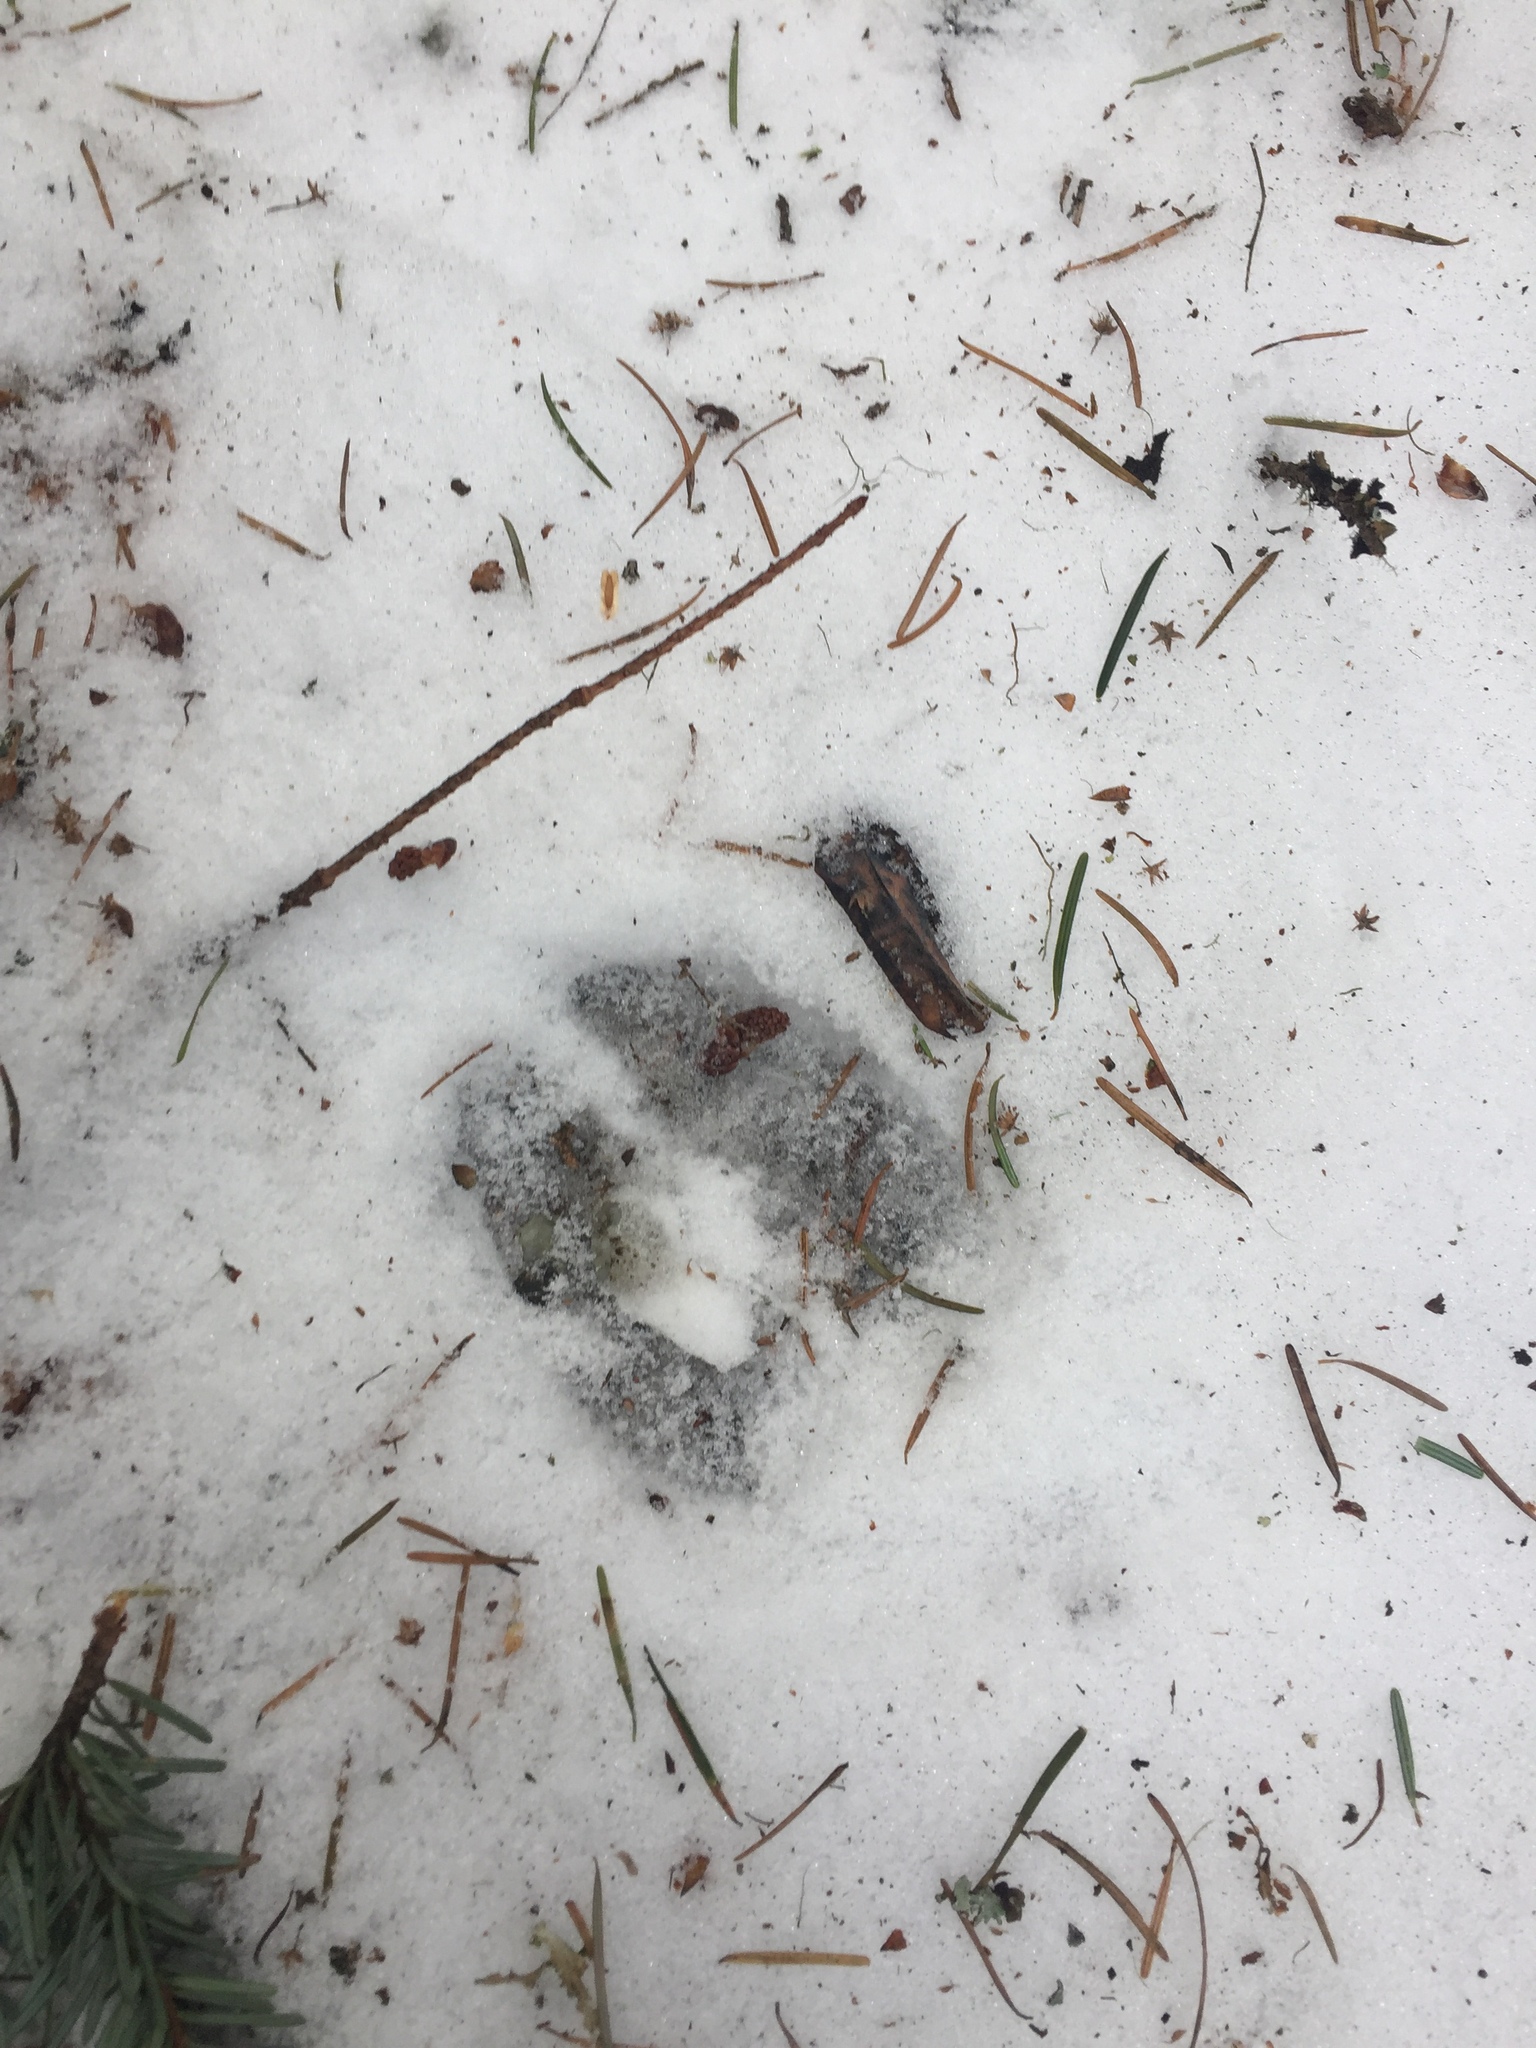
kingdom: Animalia
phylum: Chordata
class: Mammalia
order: Artiodactyla
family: Cervidae
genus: Odocoileus
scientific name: Odocoileus hemionus
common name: Mule deer
